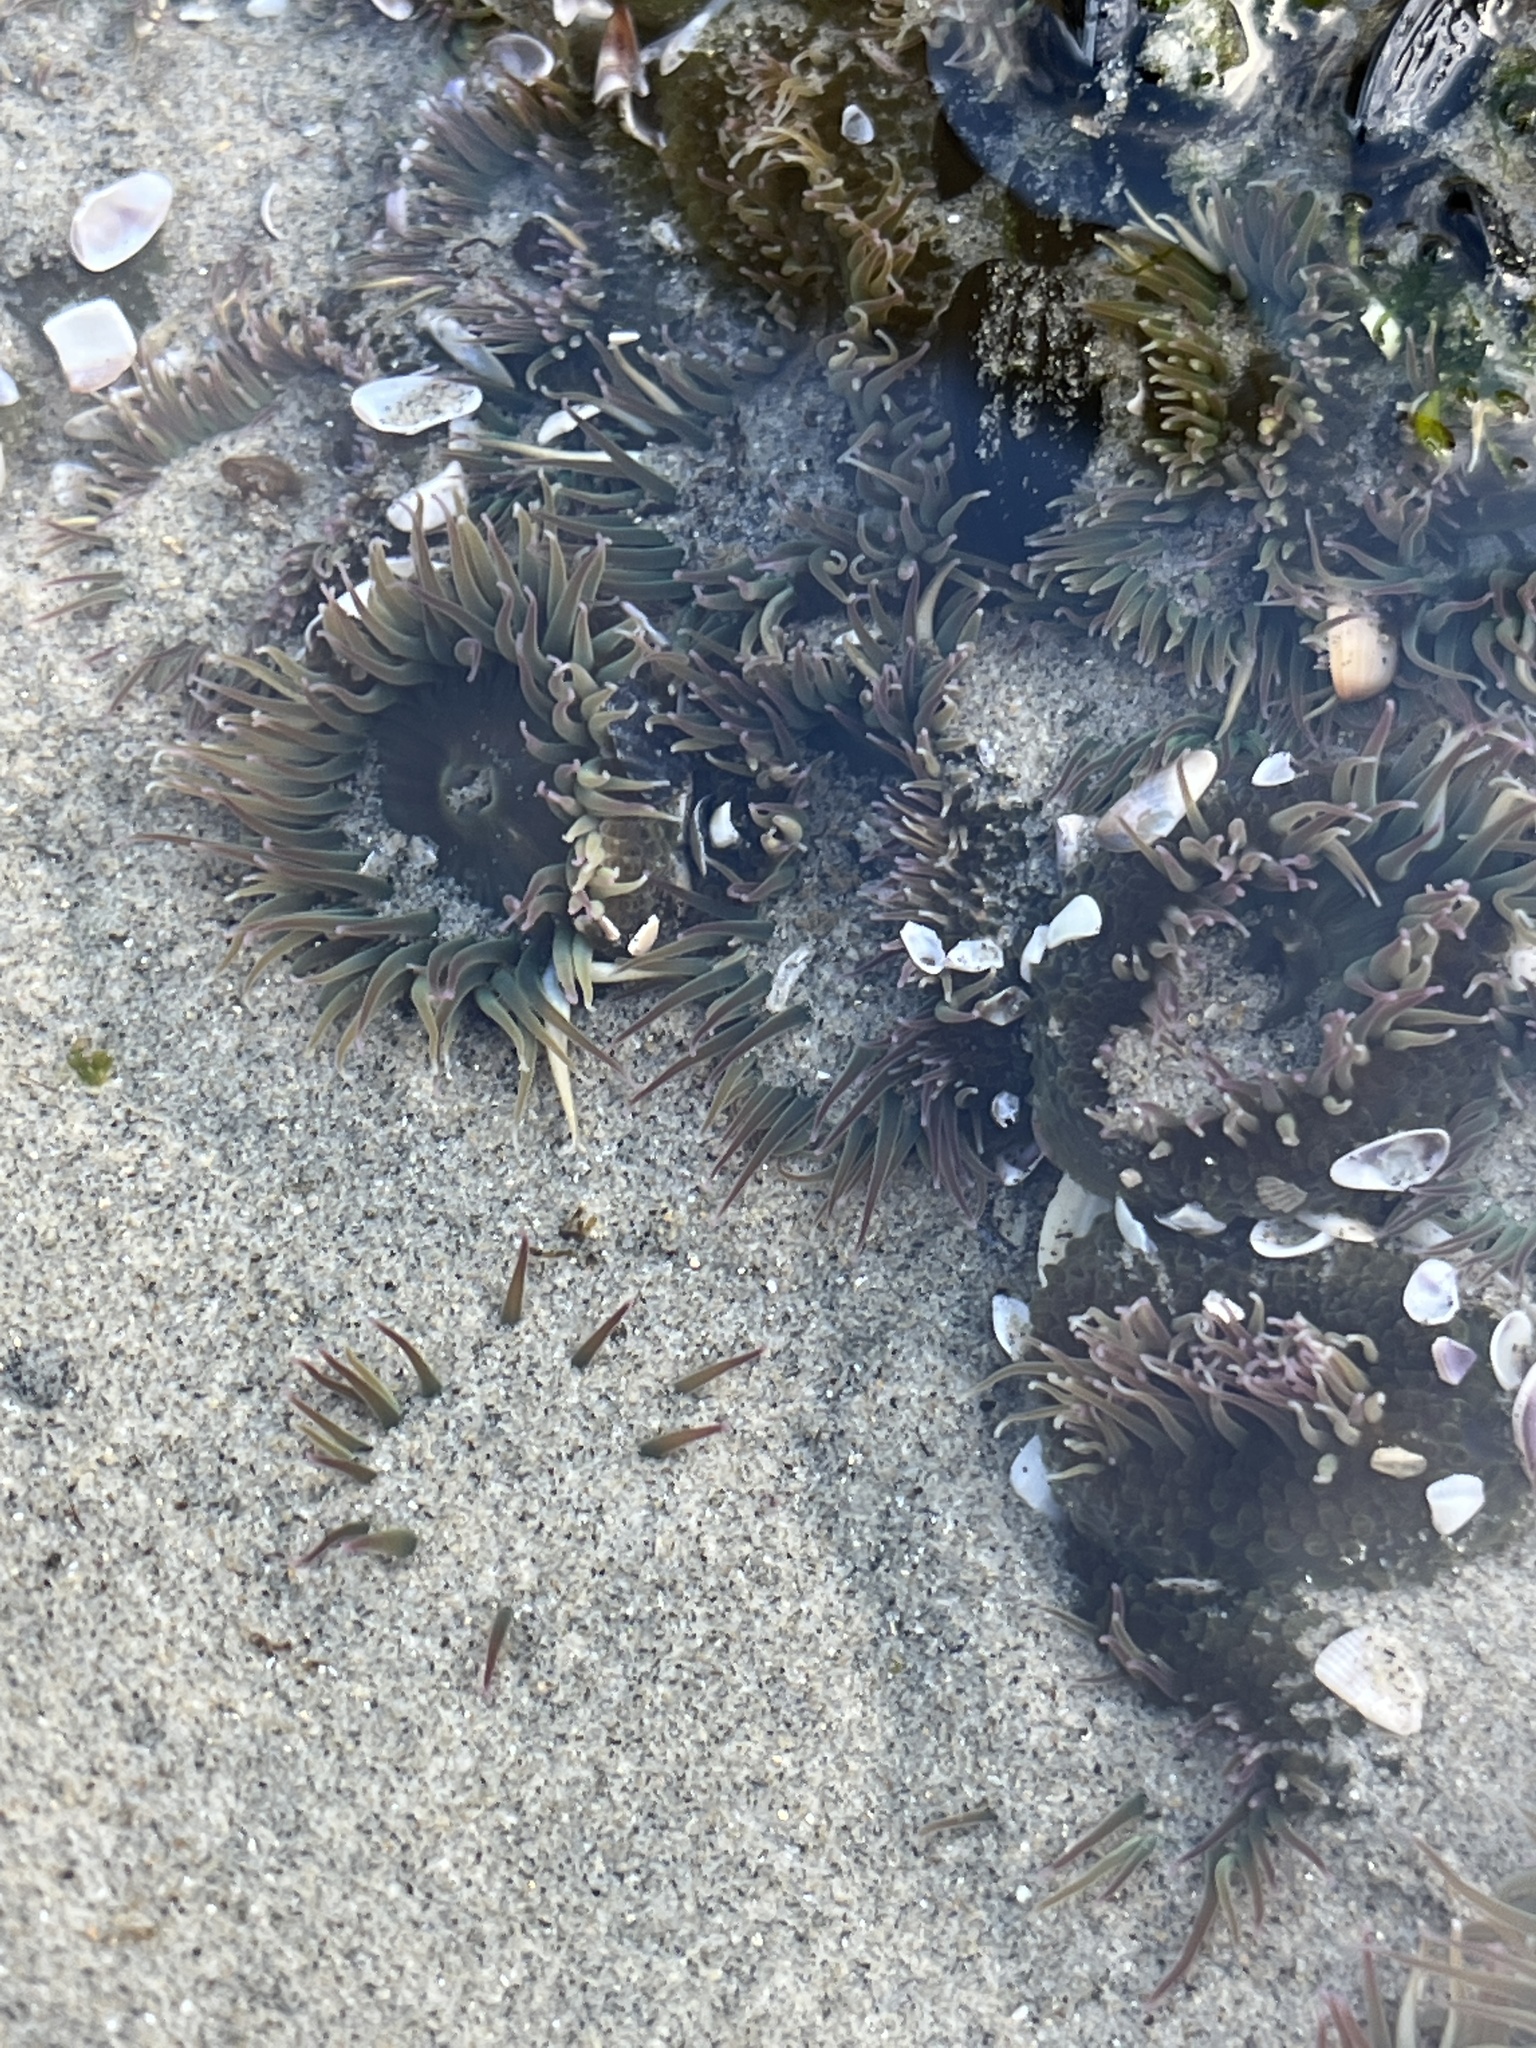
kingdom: Animalia
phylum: Cnidaria
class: Anthozoa
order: Actiniaria
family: Actiniidae
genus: Anthopleura
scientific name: Anthopleura elegantissima
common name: Clonal anemone
